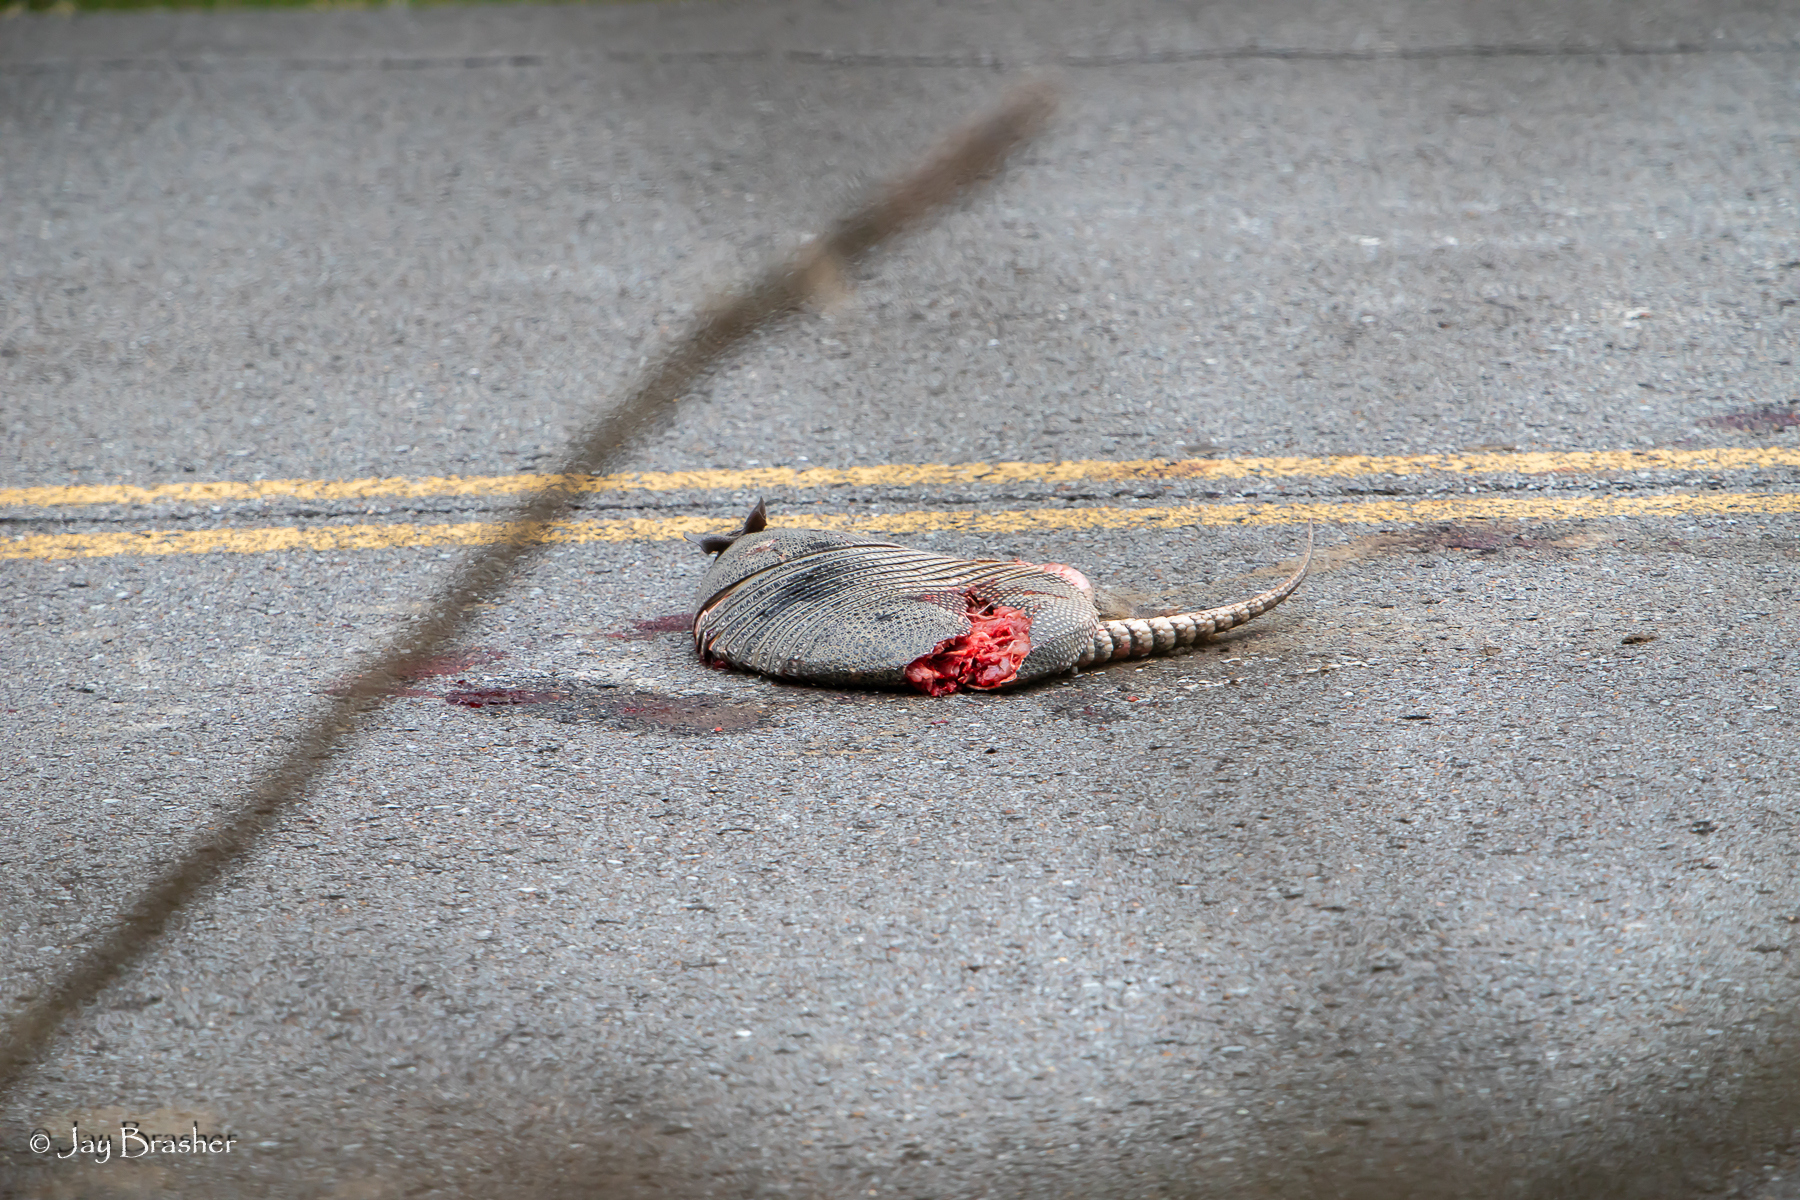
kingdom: Animalia
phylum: Chordata
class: Mammalia
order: Cingulata
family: Dasypodidae
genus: Dasypus
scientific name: Dasypus novemcinctus
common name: Nine-banded armadillo
